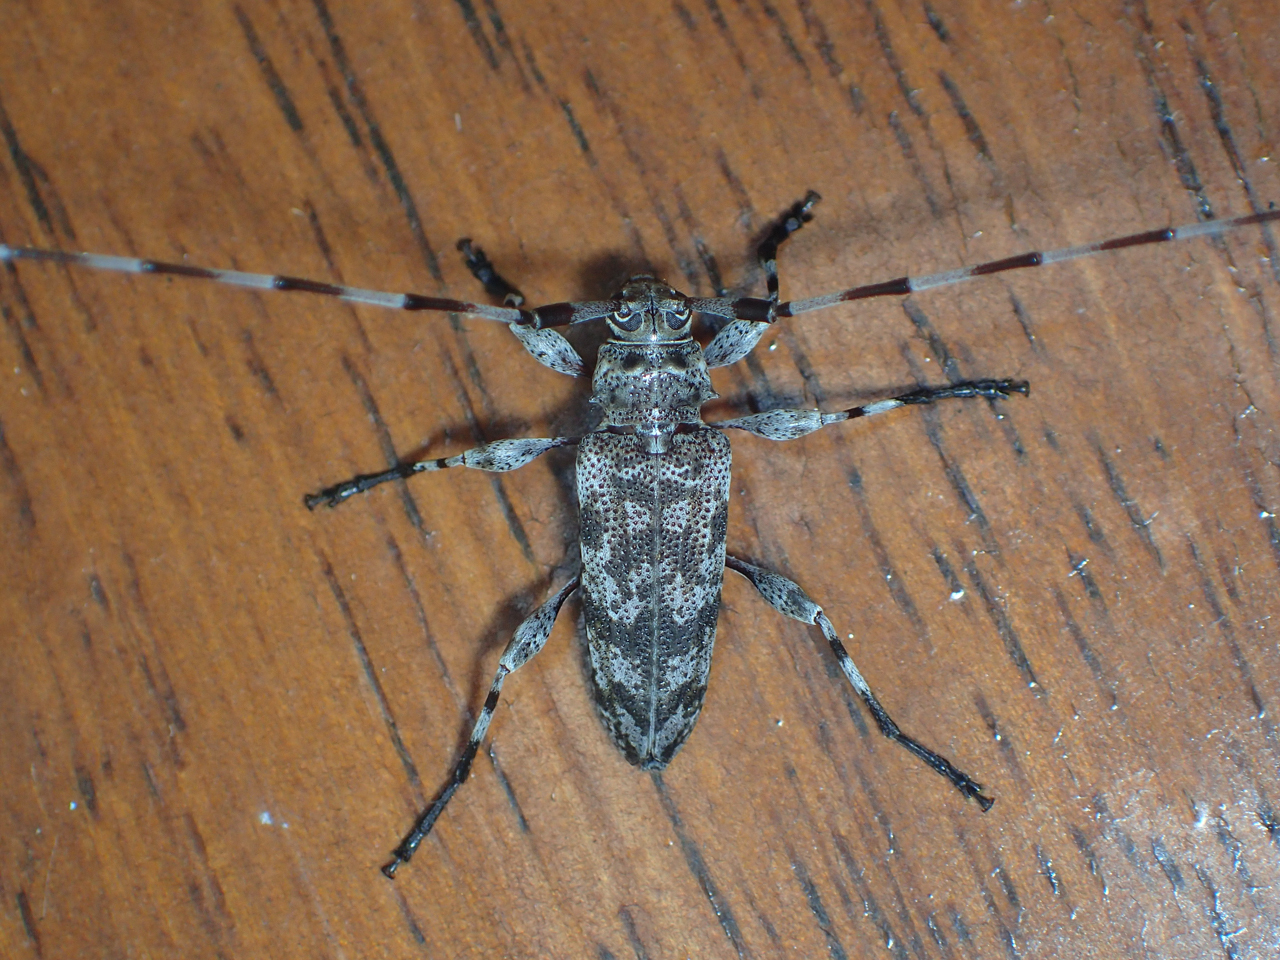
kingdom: Animalia
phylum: Arthropoda
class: Insecta
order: Coleoptera
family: Cerambycidae
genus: Acanthocinus
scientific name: Acanthocinus obsoletus
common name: Roundheaded borer
